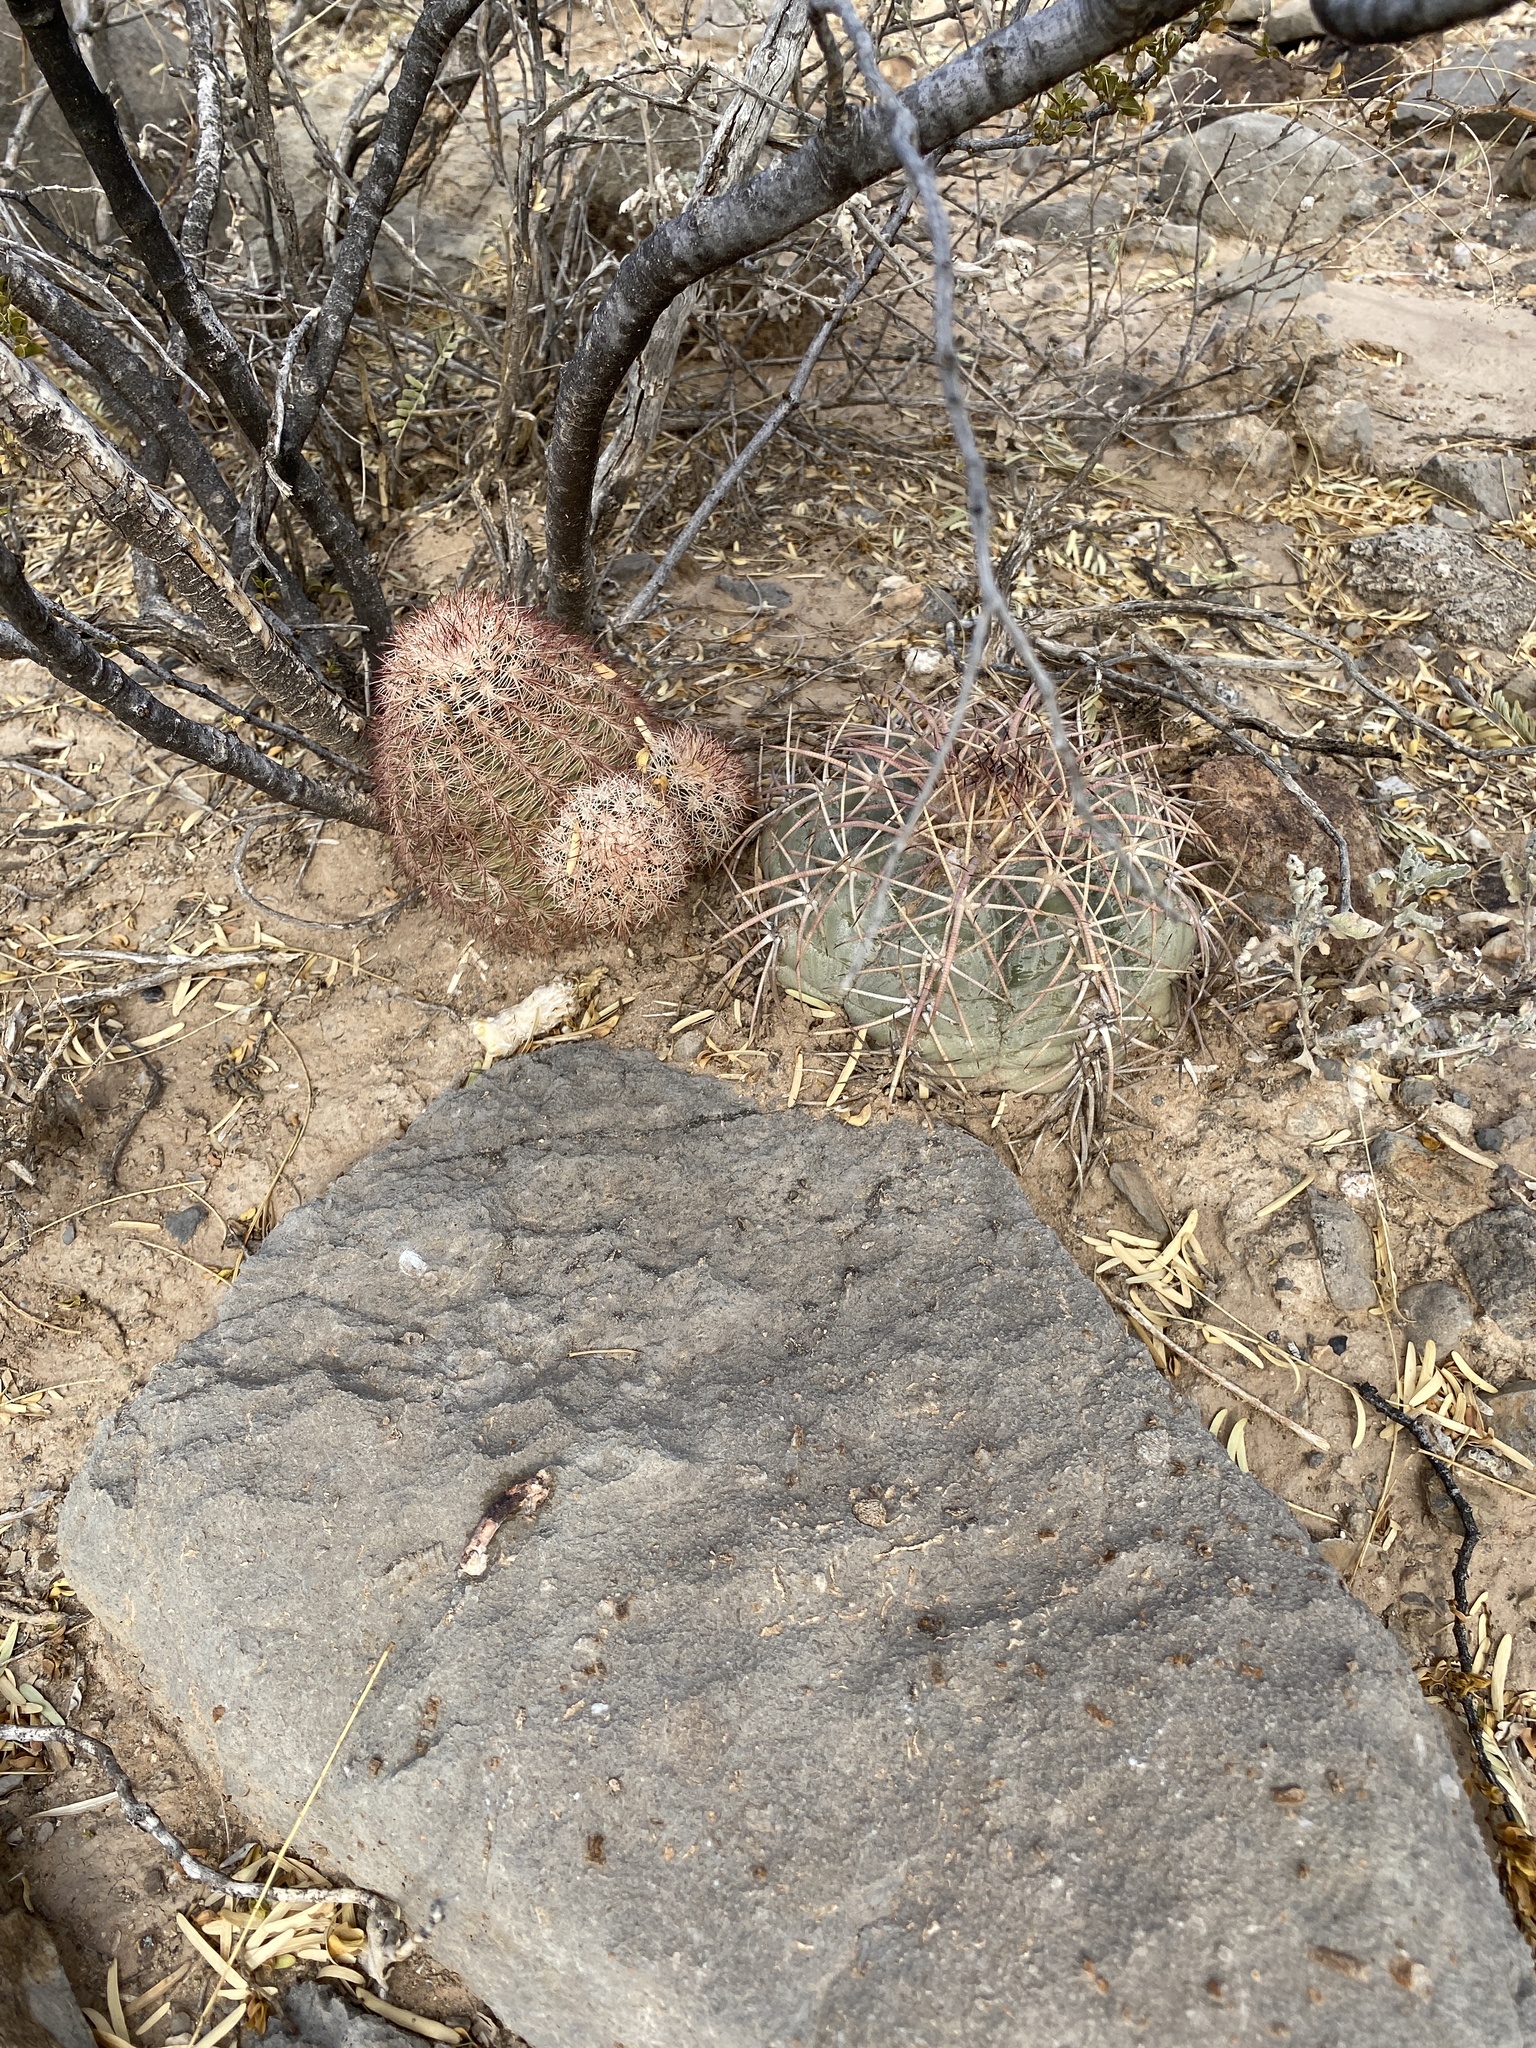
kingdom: Plantae
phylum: Tracheophyta
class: Magnoliopsida
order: Caryophyllales
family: Cactaceae
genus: Echinocactus
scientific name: Echinocactus horizonthalonius
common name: Devilshead
